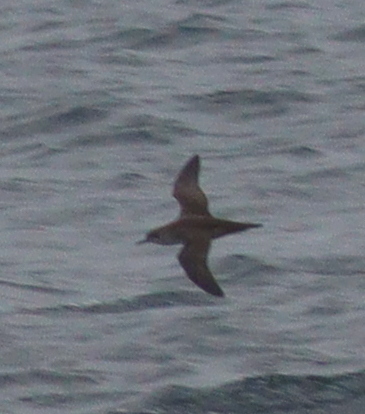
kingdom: Animalia
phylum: Chordata
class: Aves
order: Procellariiformes
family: Procellariidae
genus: Puffinus
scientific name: Puffinus mauretanicus
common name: Balearic shearwater
